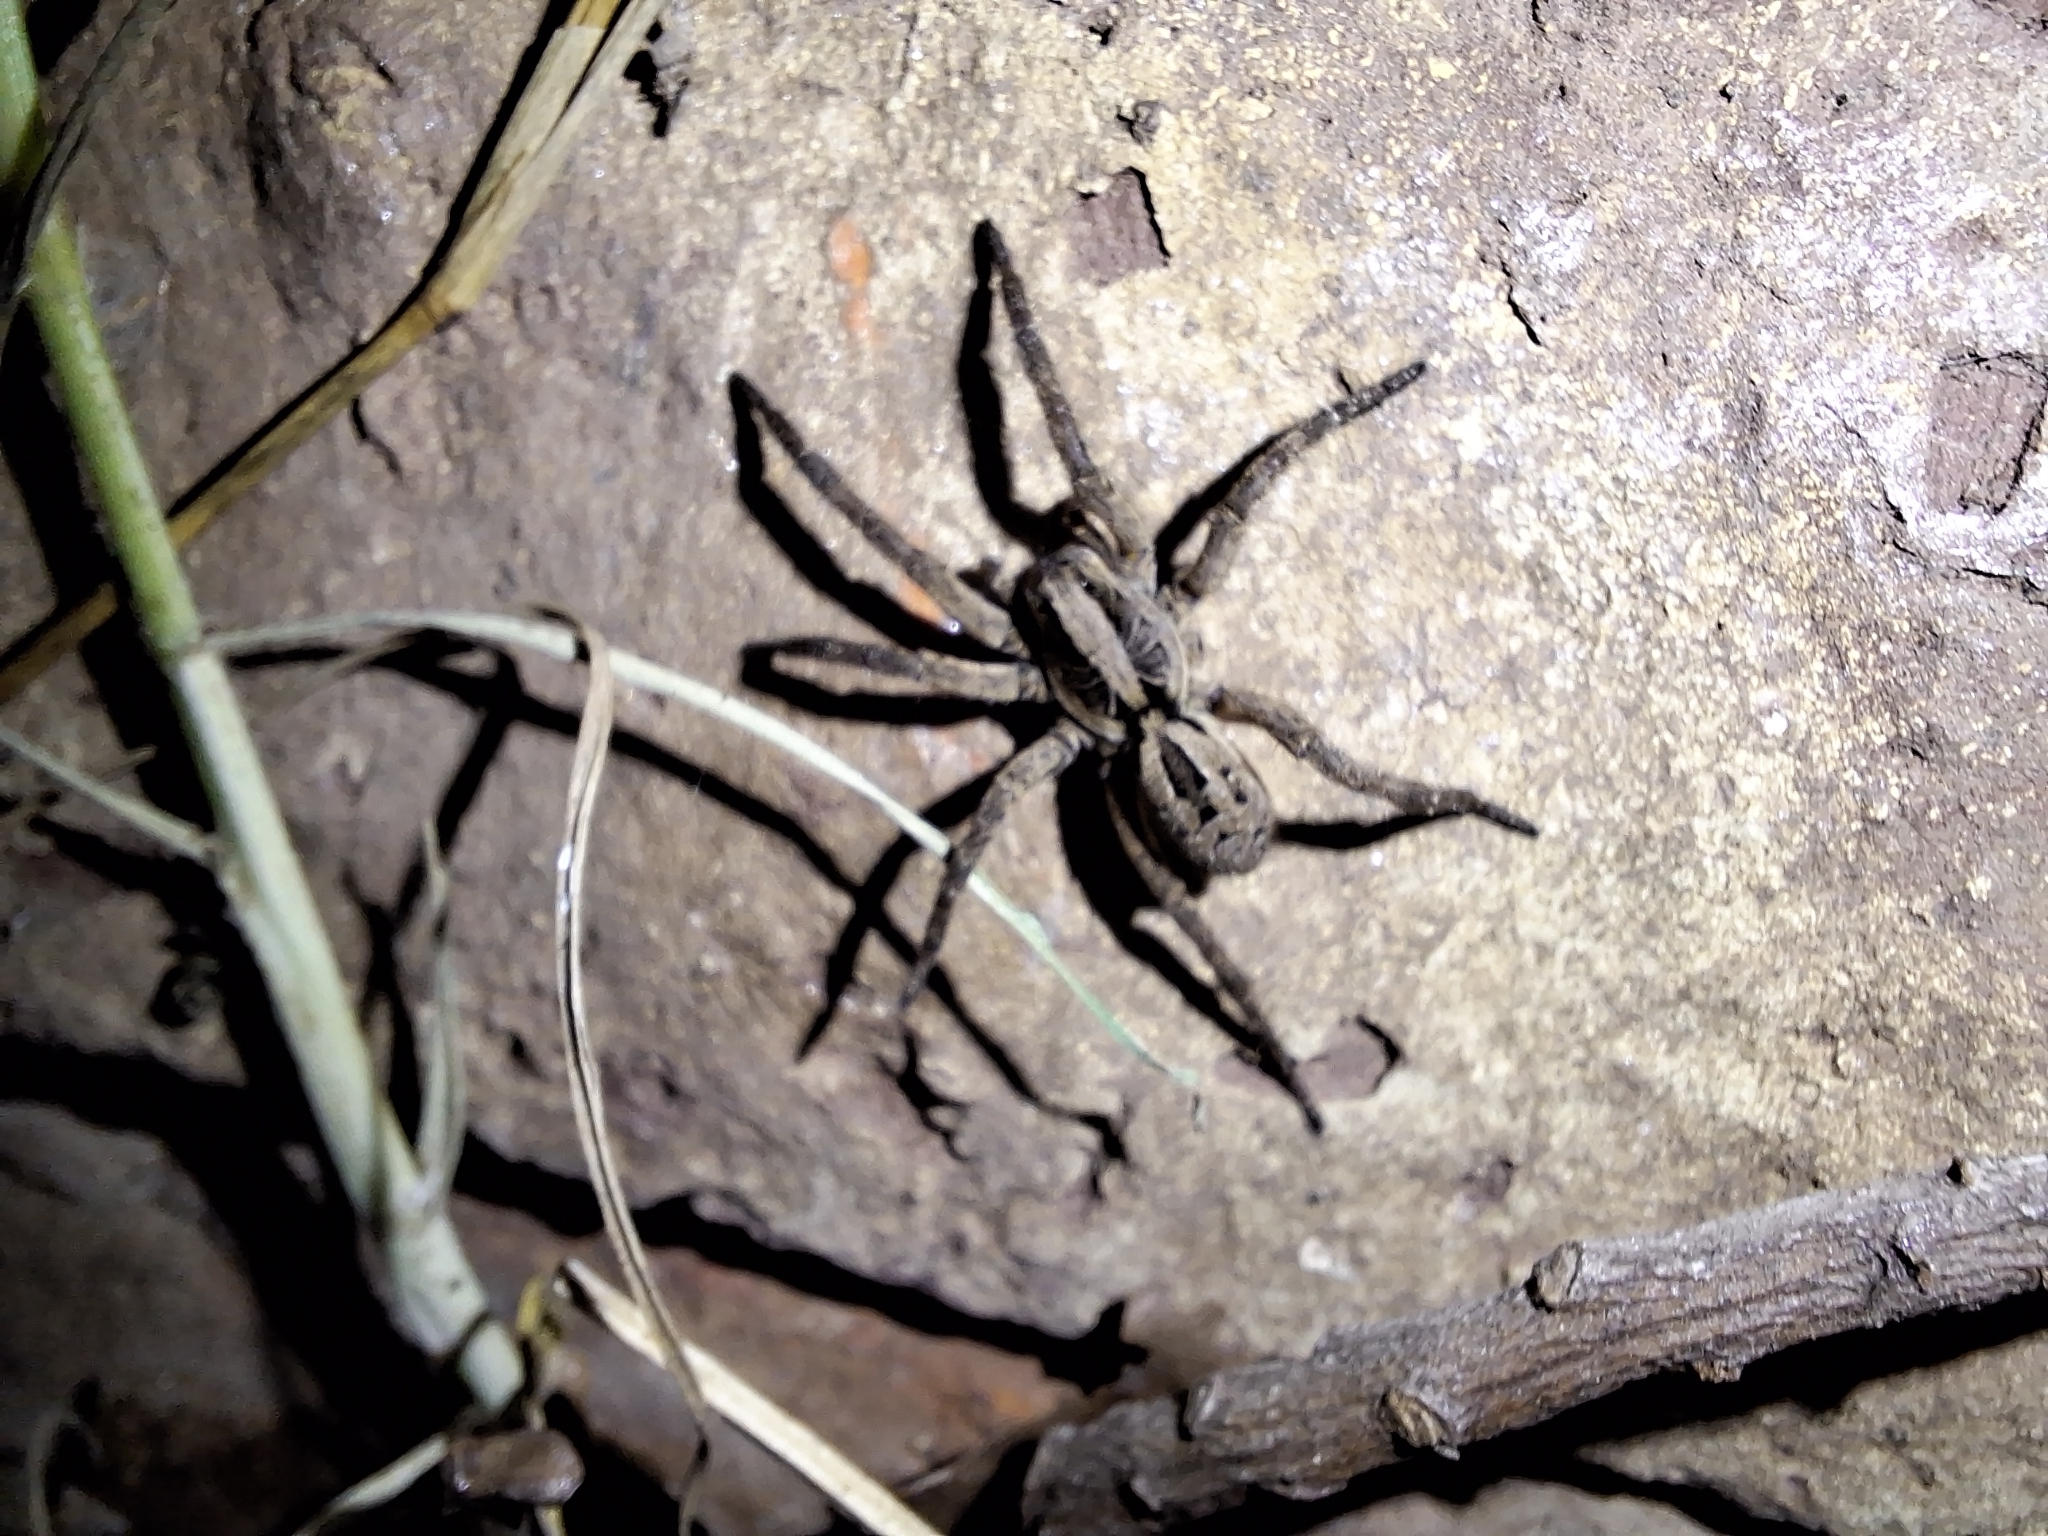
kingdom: Animalia
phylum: Arthropoda
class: Arachnida
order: Araneae
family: Lycosidae
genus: Lycosa
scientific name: Lycosa erythrognatha
